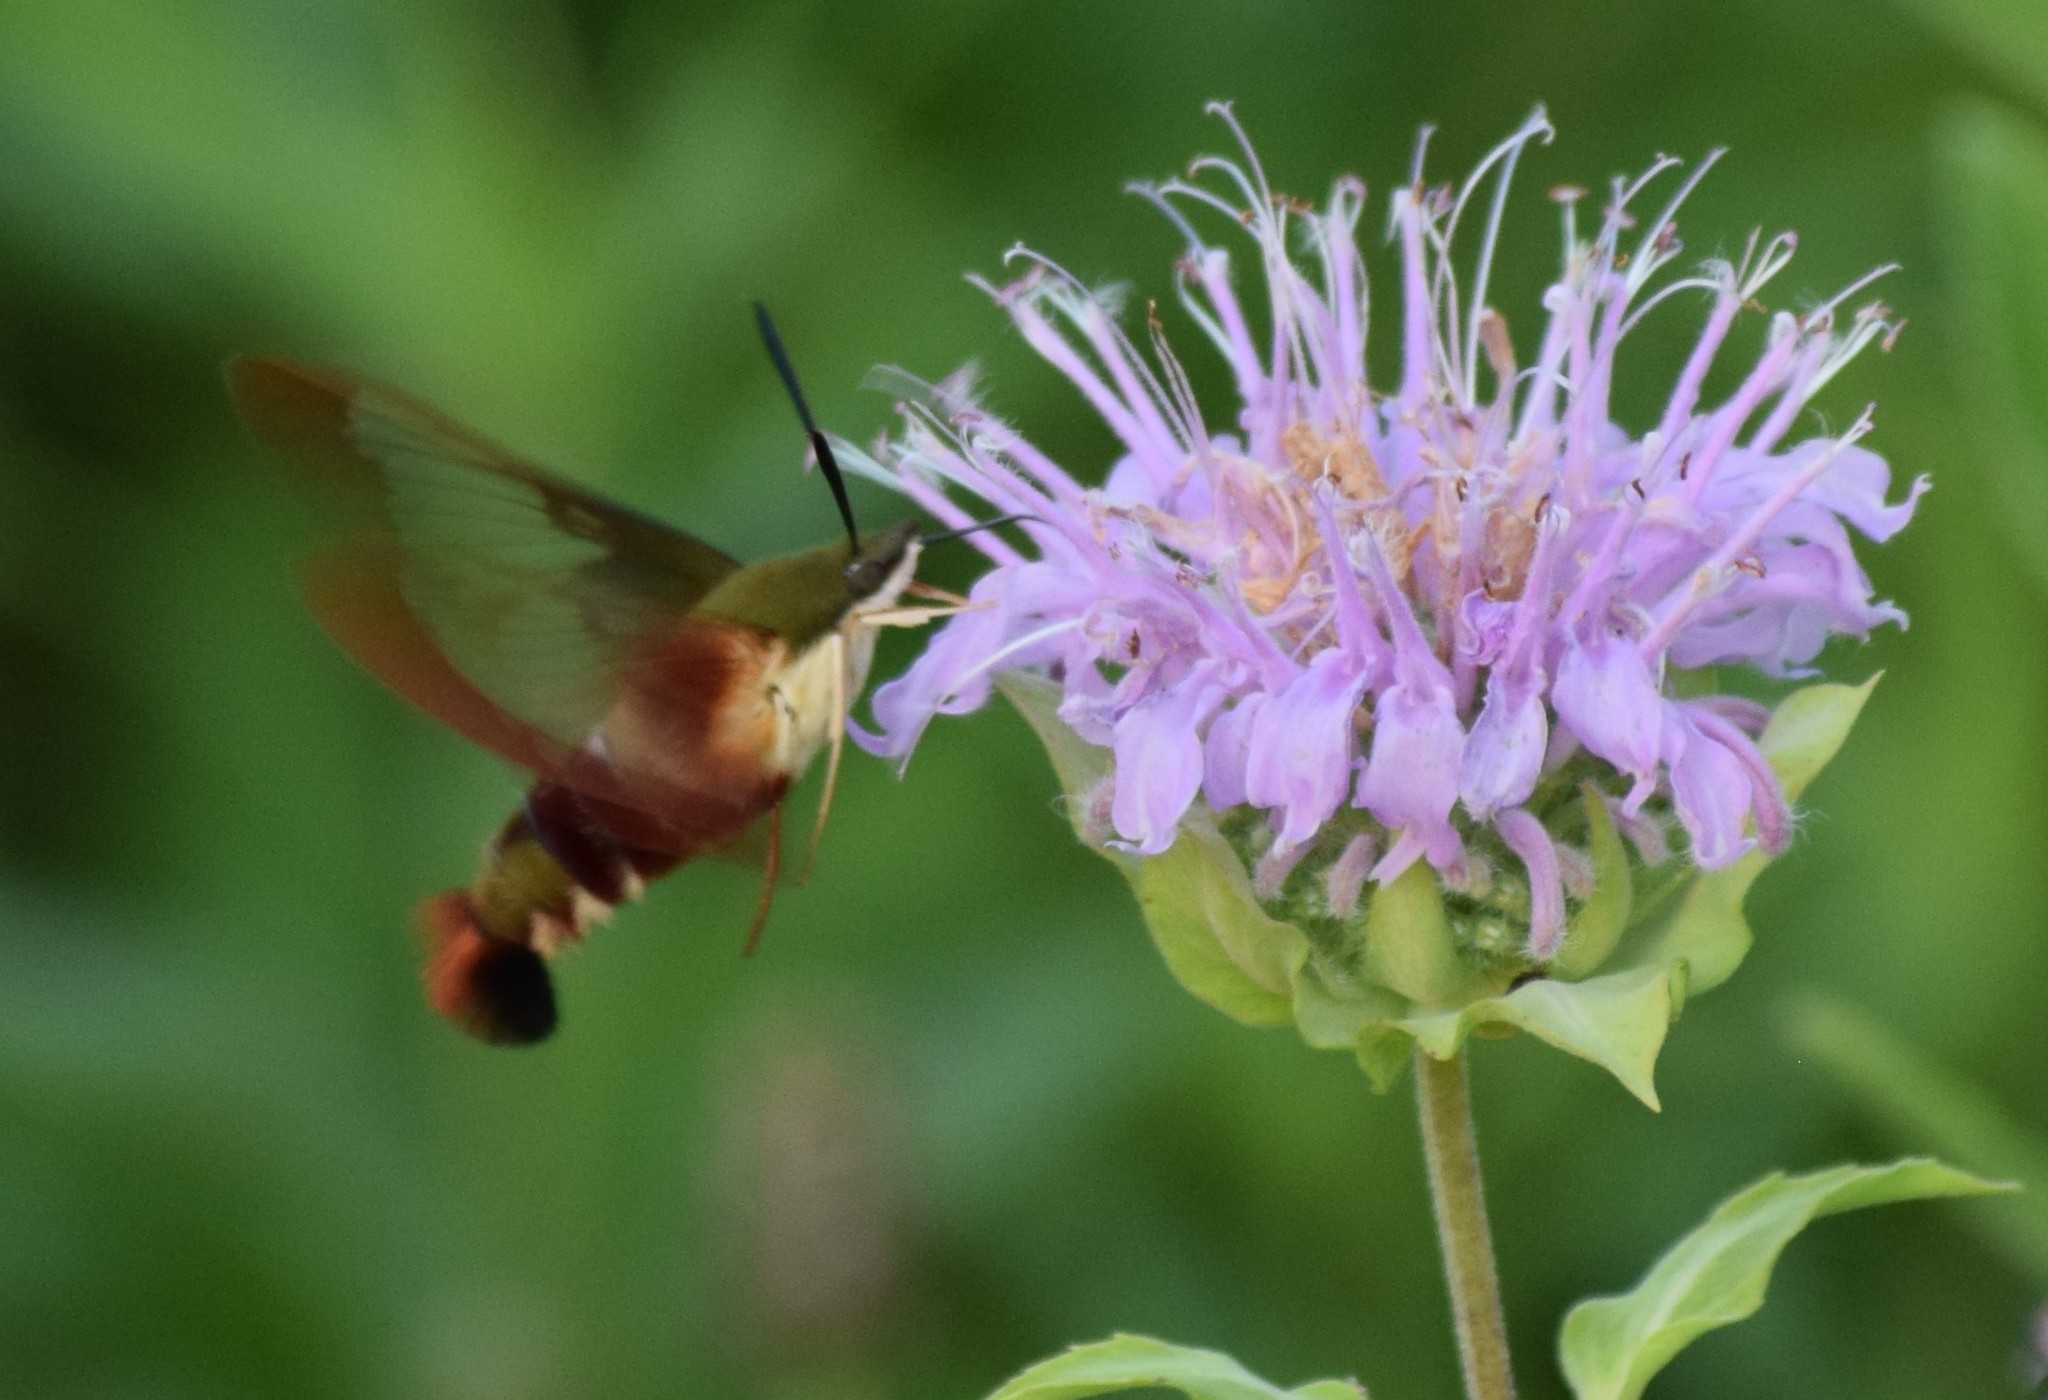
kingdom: Animalia
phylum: Arthropoda
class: Insecta
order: Lepidoptera
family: Sphingidae
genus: Hemaris
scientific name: Hemaris thysbe
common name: Common clear-wing
